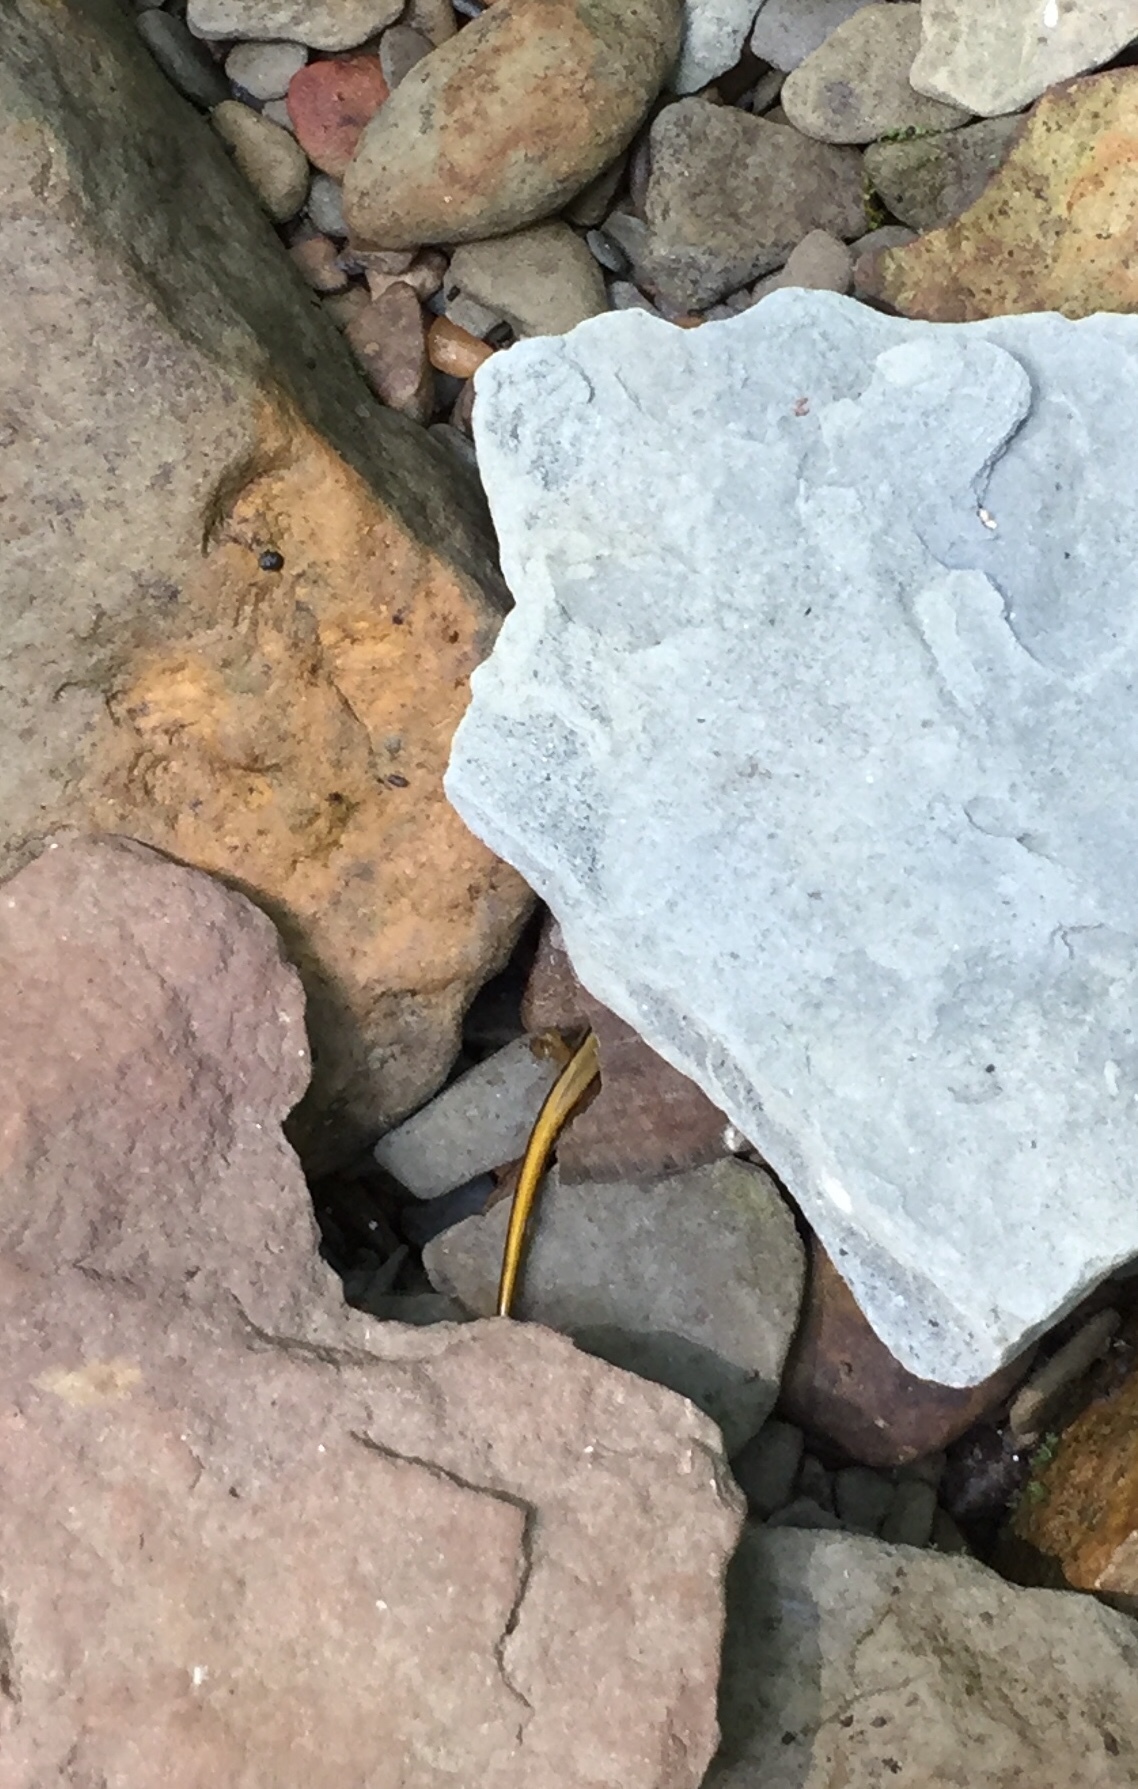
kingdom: Animalia
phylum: Chordata
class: Amphibia
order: Caudata
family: Plethodontidae
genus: Eurycea
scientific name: Eurycea cirrigera
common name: Southern two-lined salamander
